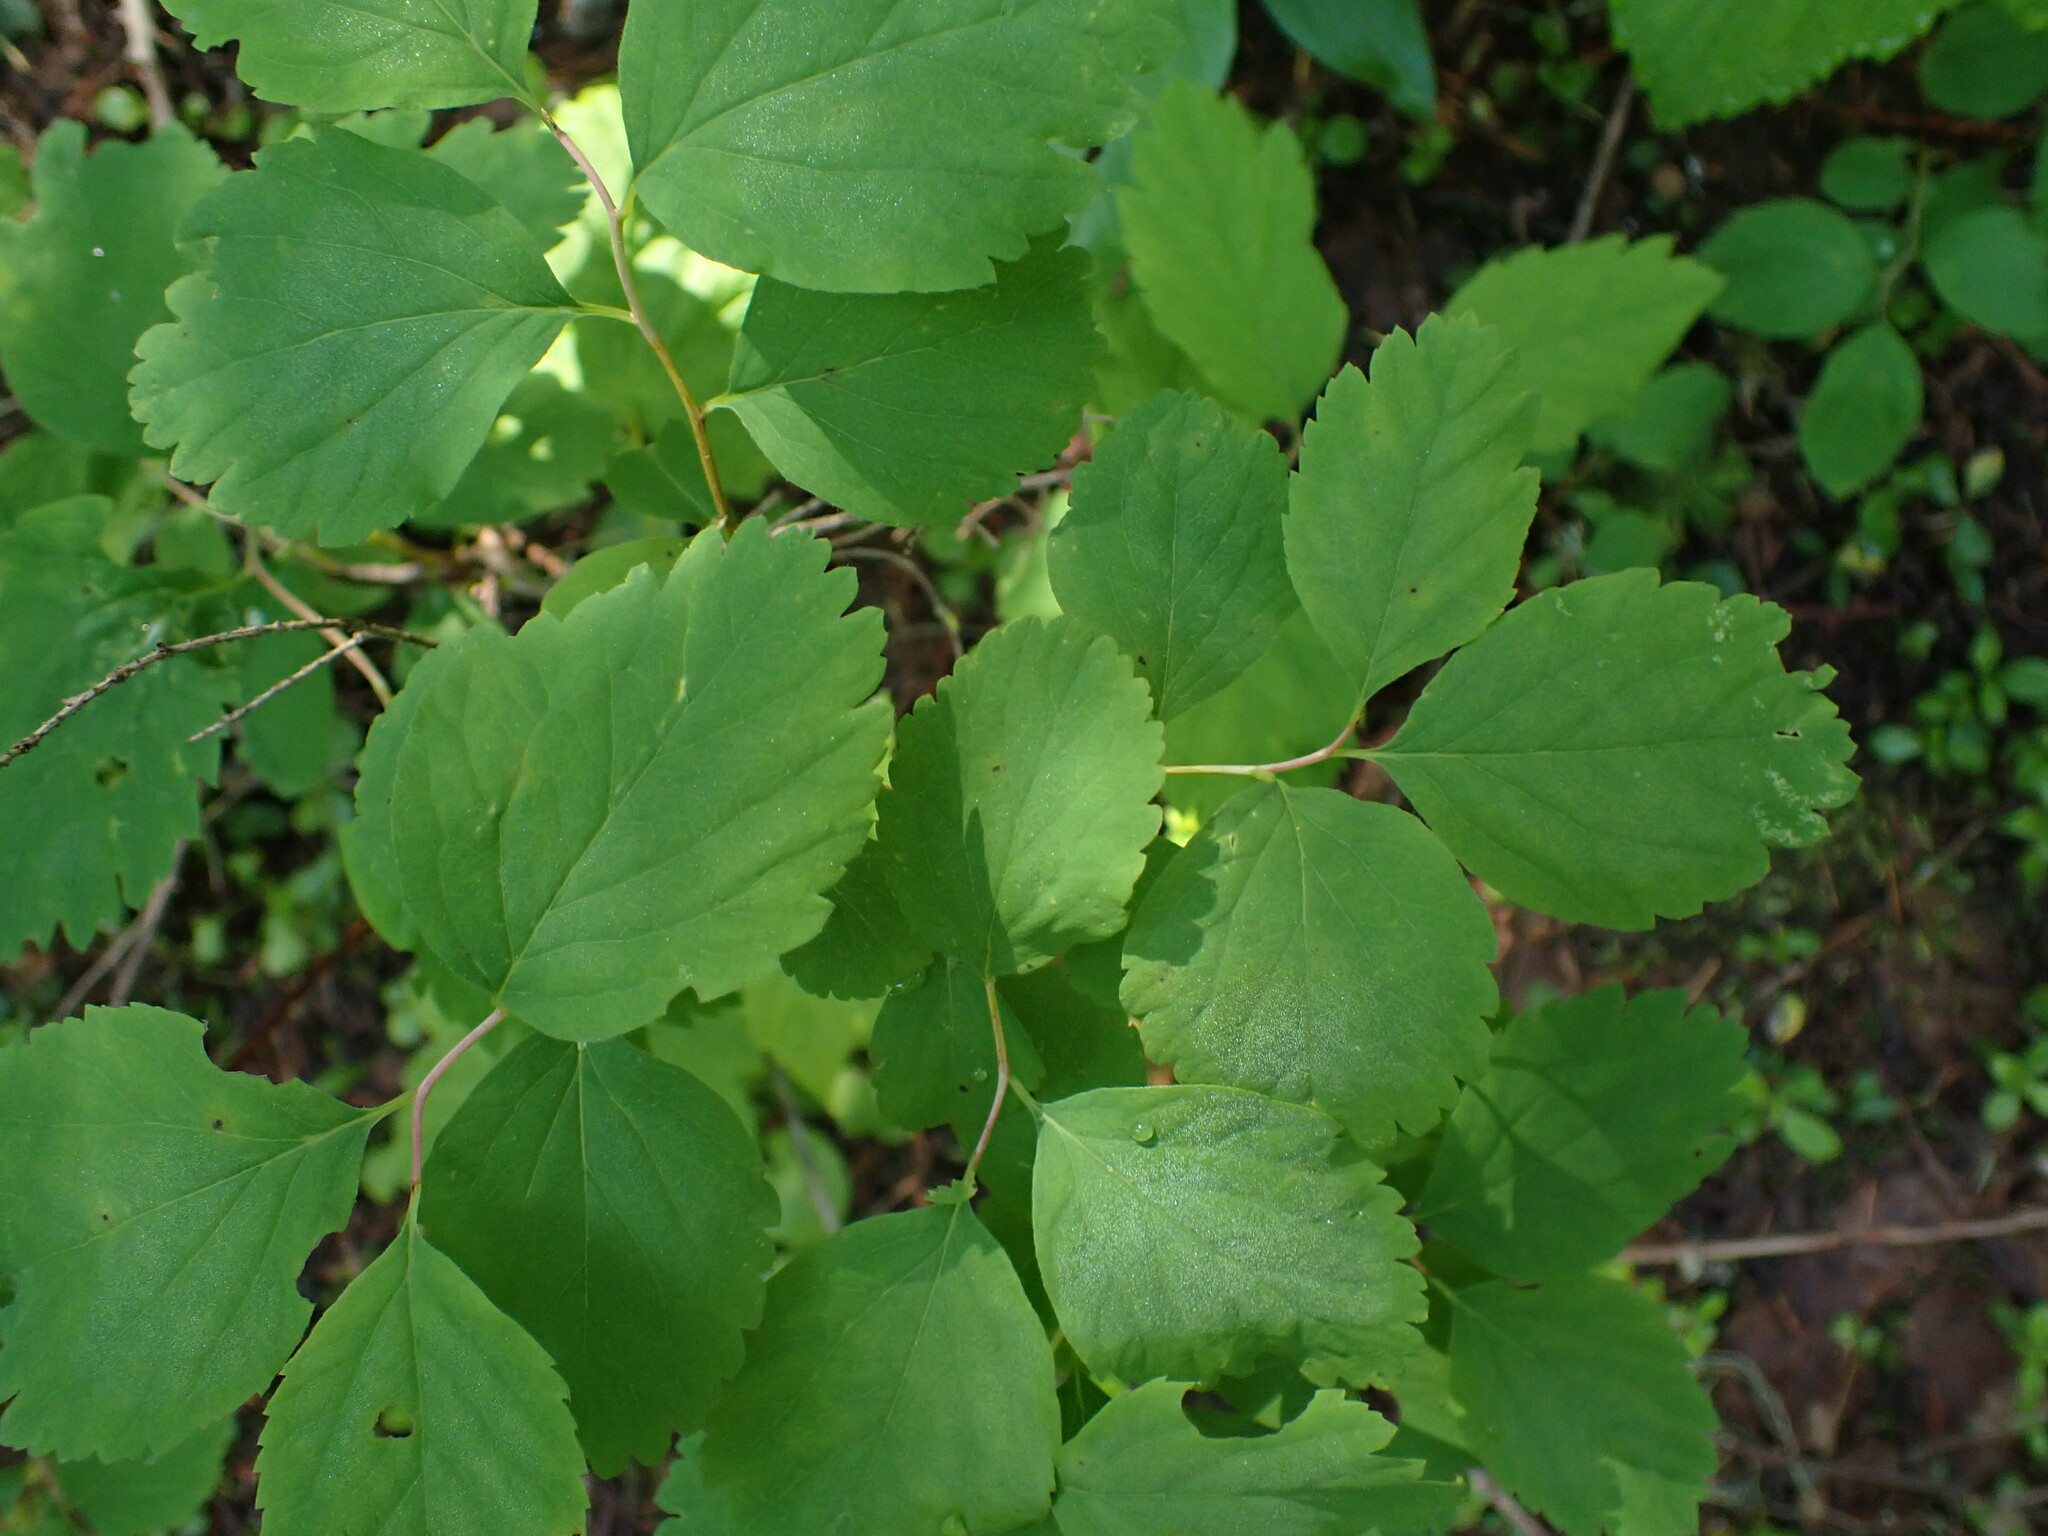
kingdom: Plantae
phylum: Tracheophyta
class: Magnoliopsida
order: Rosales
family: Rosaceae
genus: Spiraea
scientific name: Spiraea lucida
